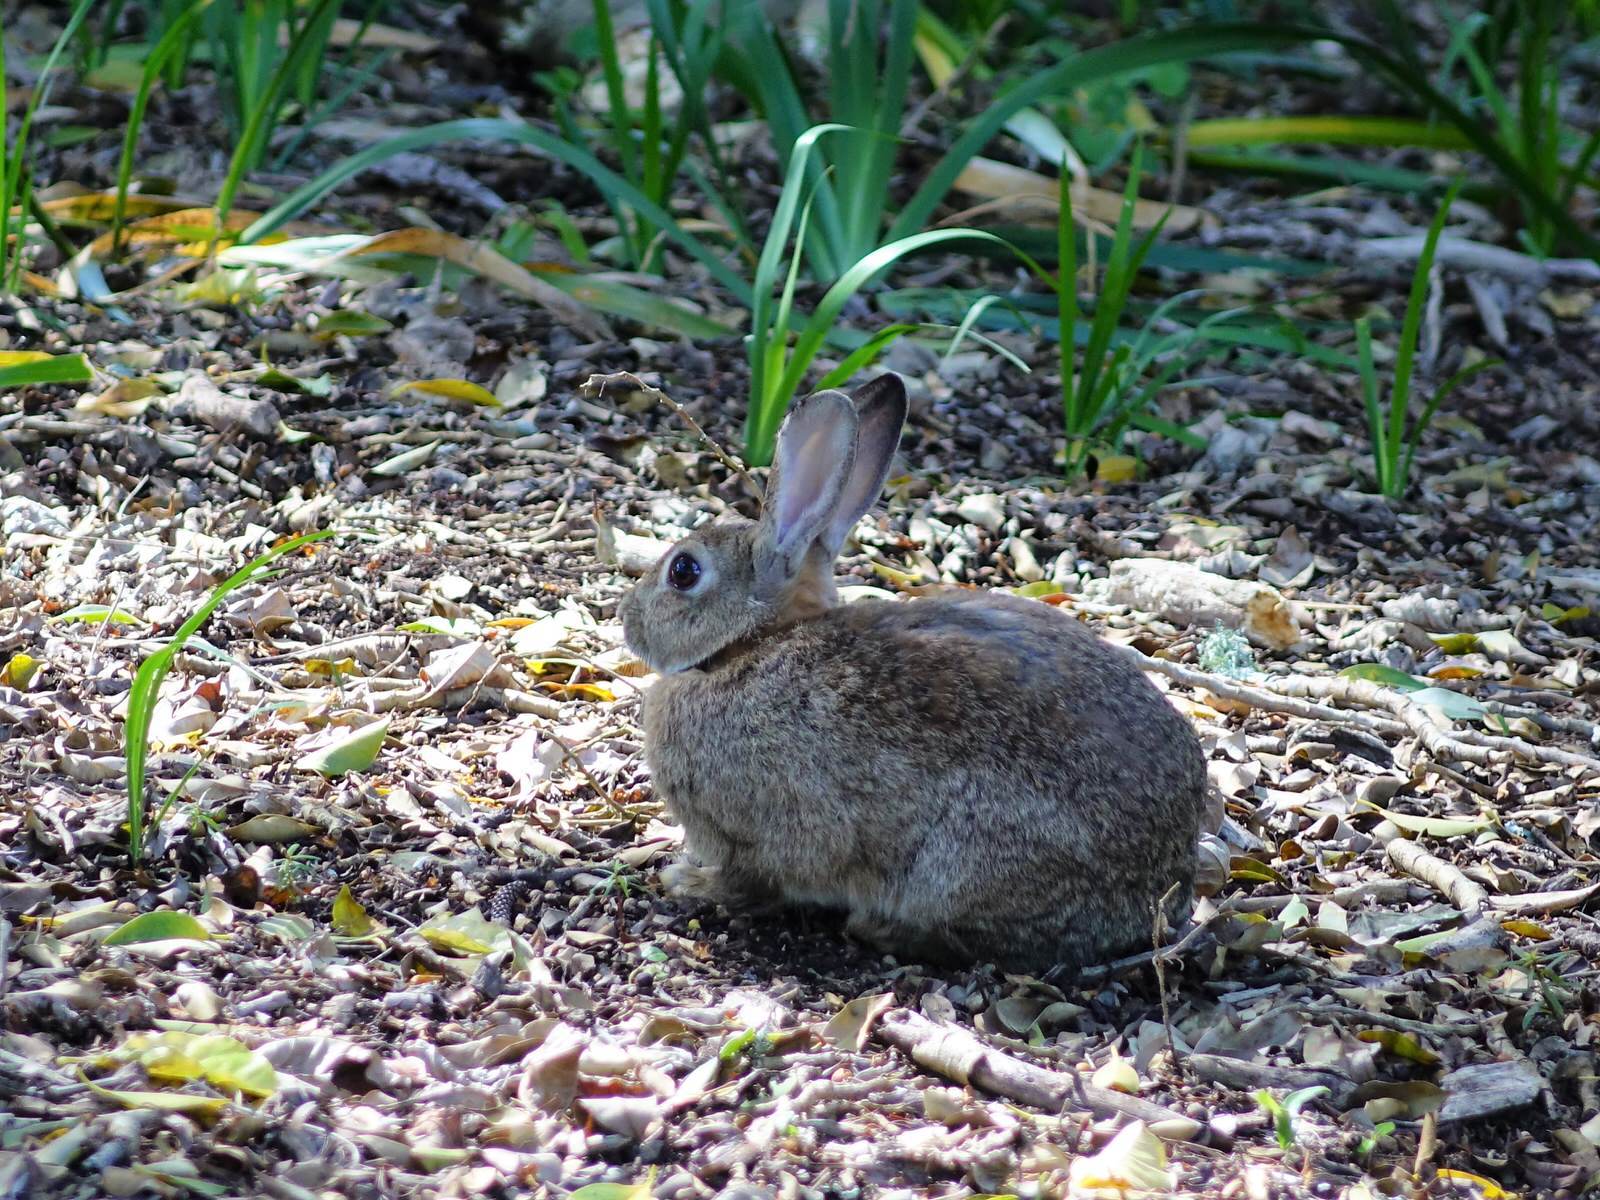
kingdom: Animalia
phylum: Chordata
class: Mammalia
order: Lagomorpha
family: Leporidae
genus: Oryctolagus
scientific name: Oryctolagus cuniculus
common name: European rabbit
